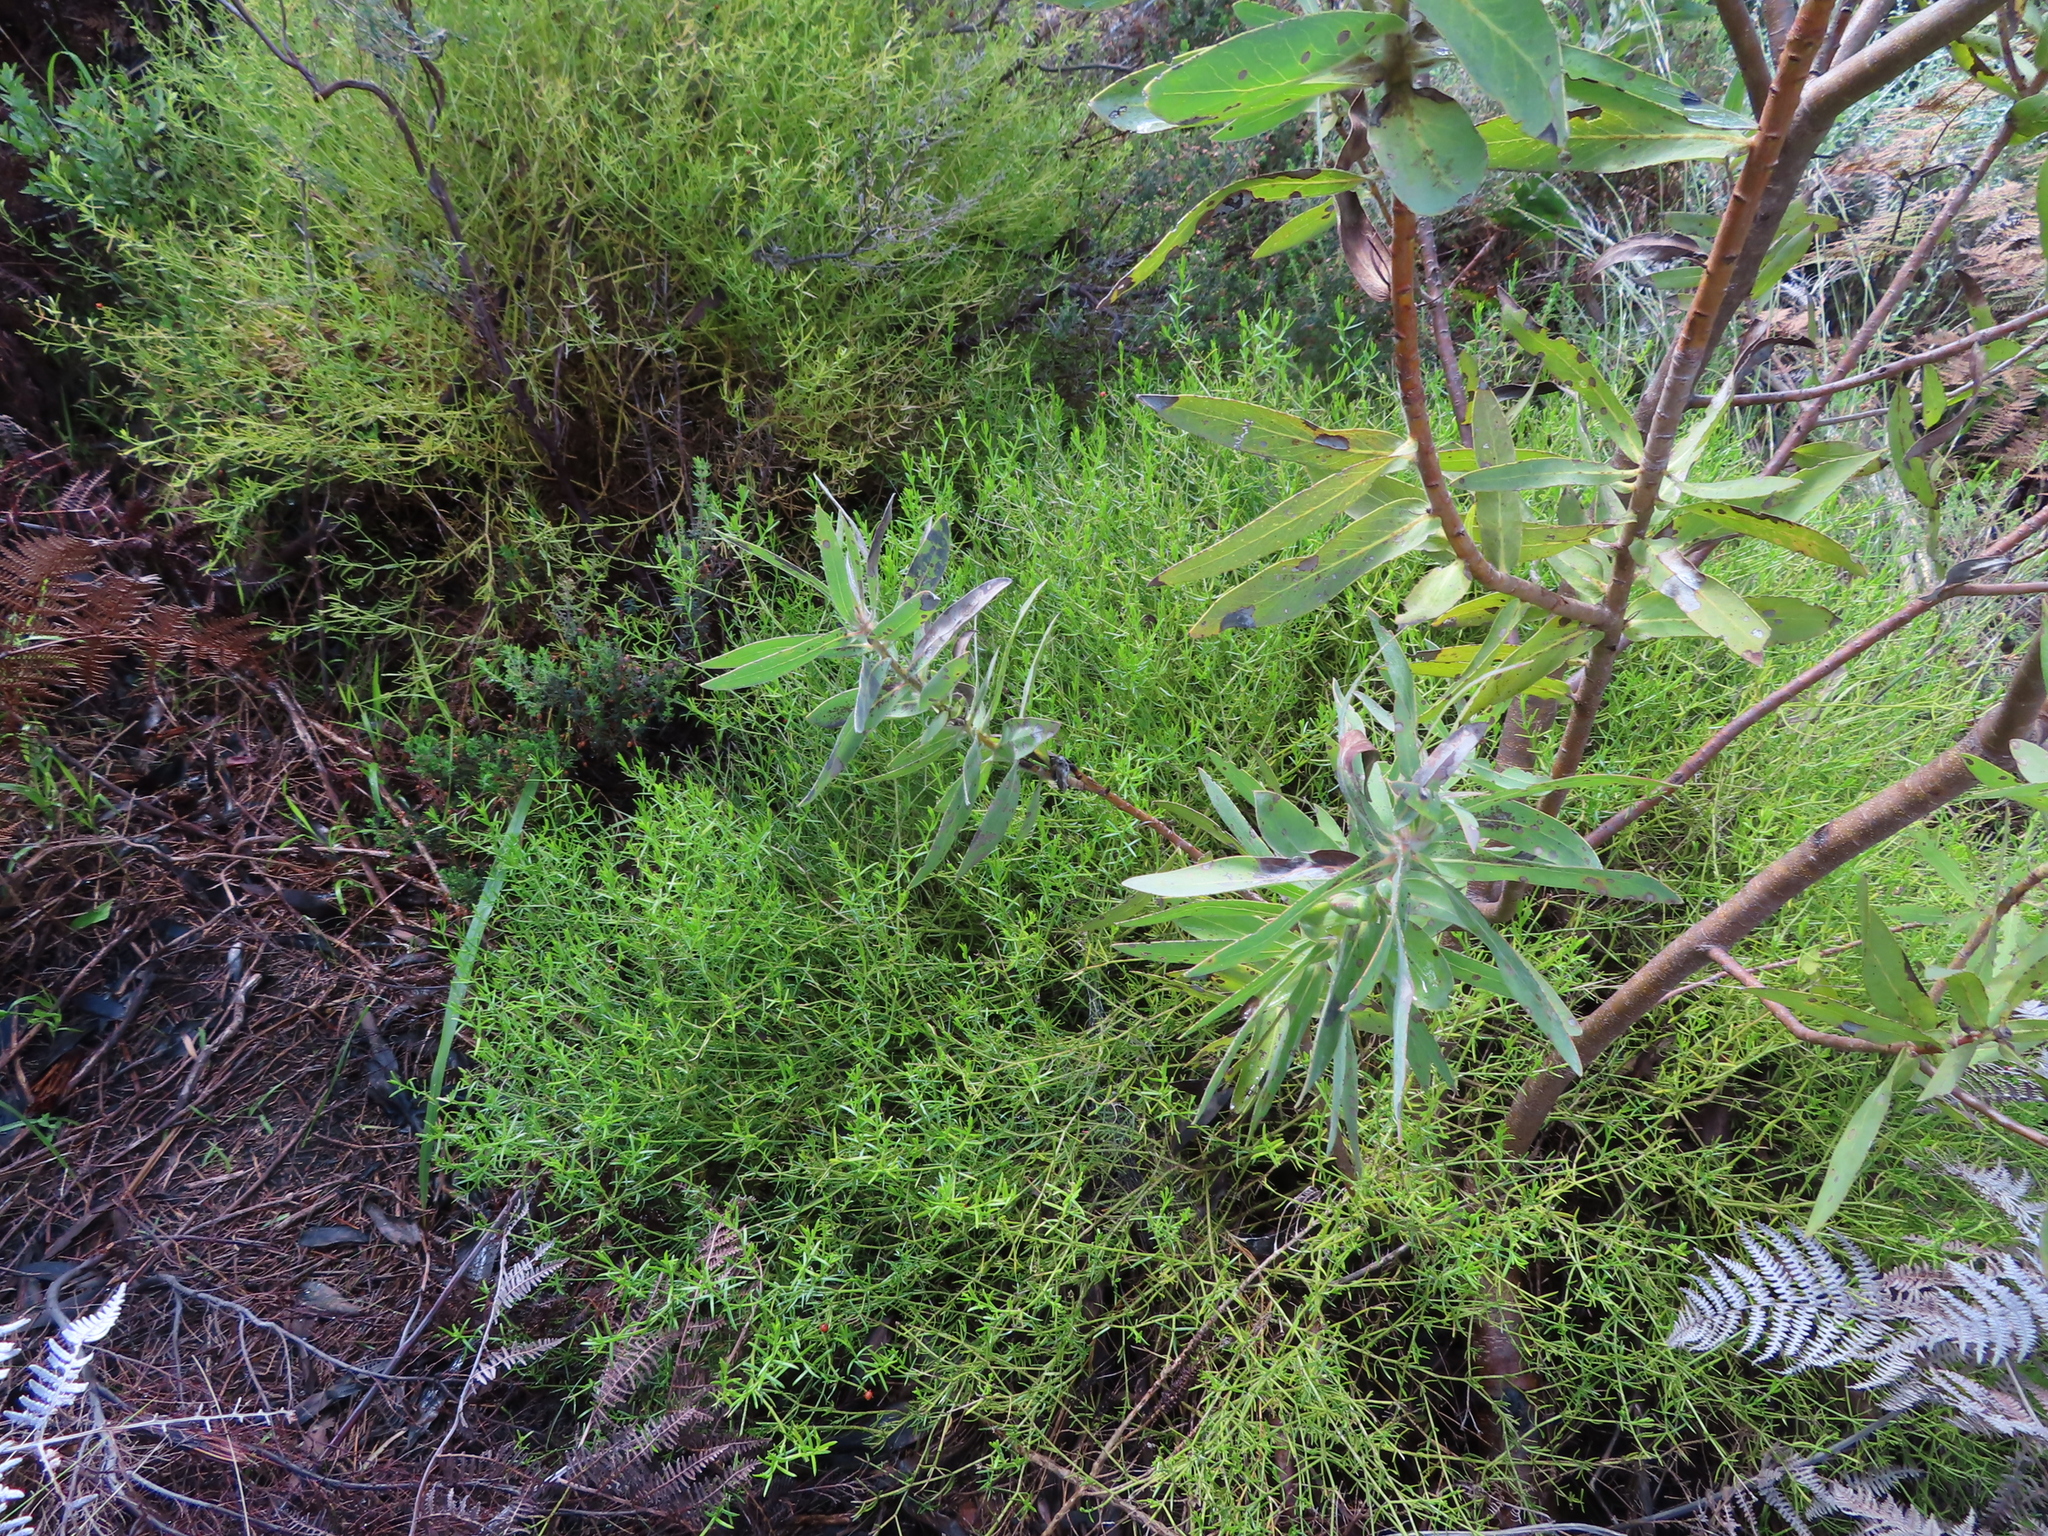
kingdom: Plantae
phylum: Tracheophyta
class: Magnoliopsida
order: Gentianales
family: Gentianaceae
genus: Chironia
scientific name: Chironia baccifera
